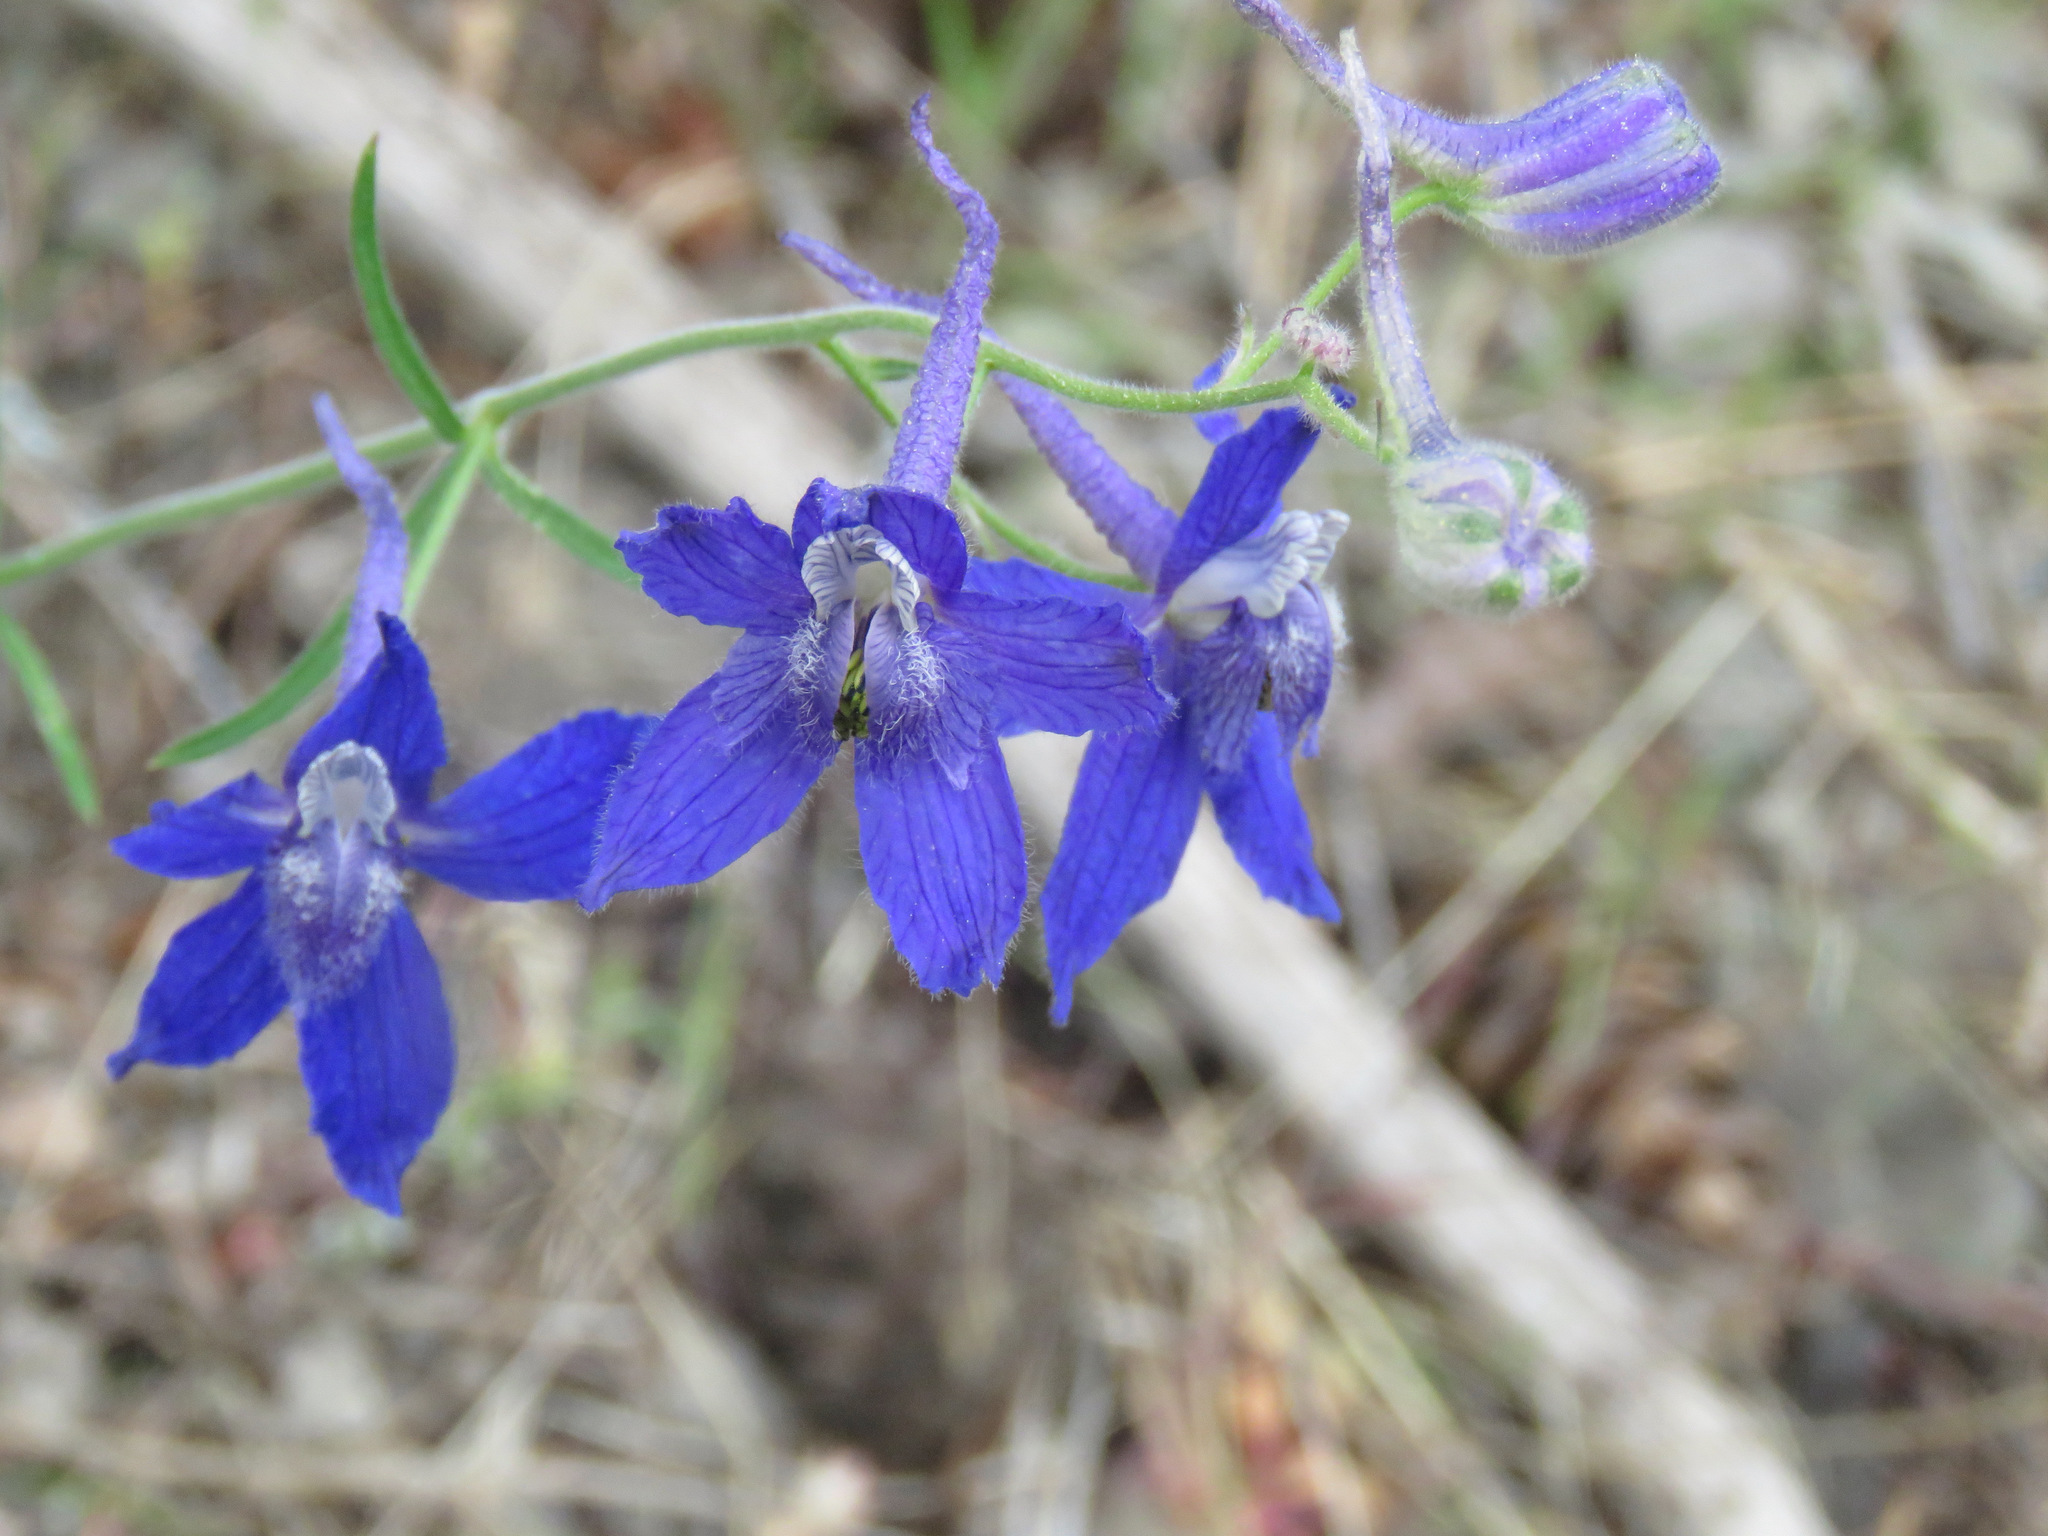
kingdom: Plantae
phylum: Tracheophyta
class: Magnoliopsida
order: Ranunculales
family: Ranunculaceae
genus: Delphinium
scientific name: Delphinium nuttallianum
